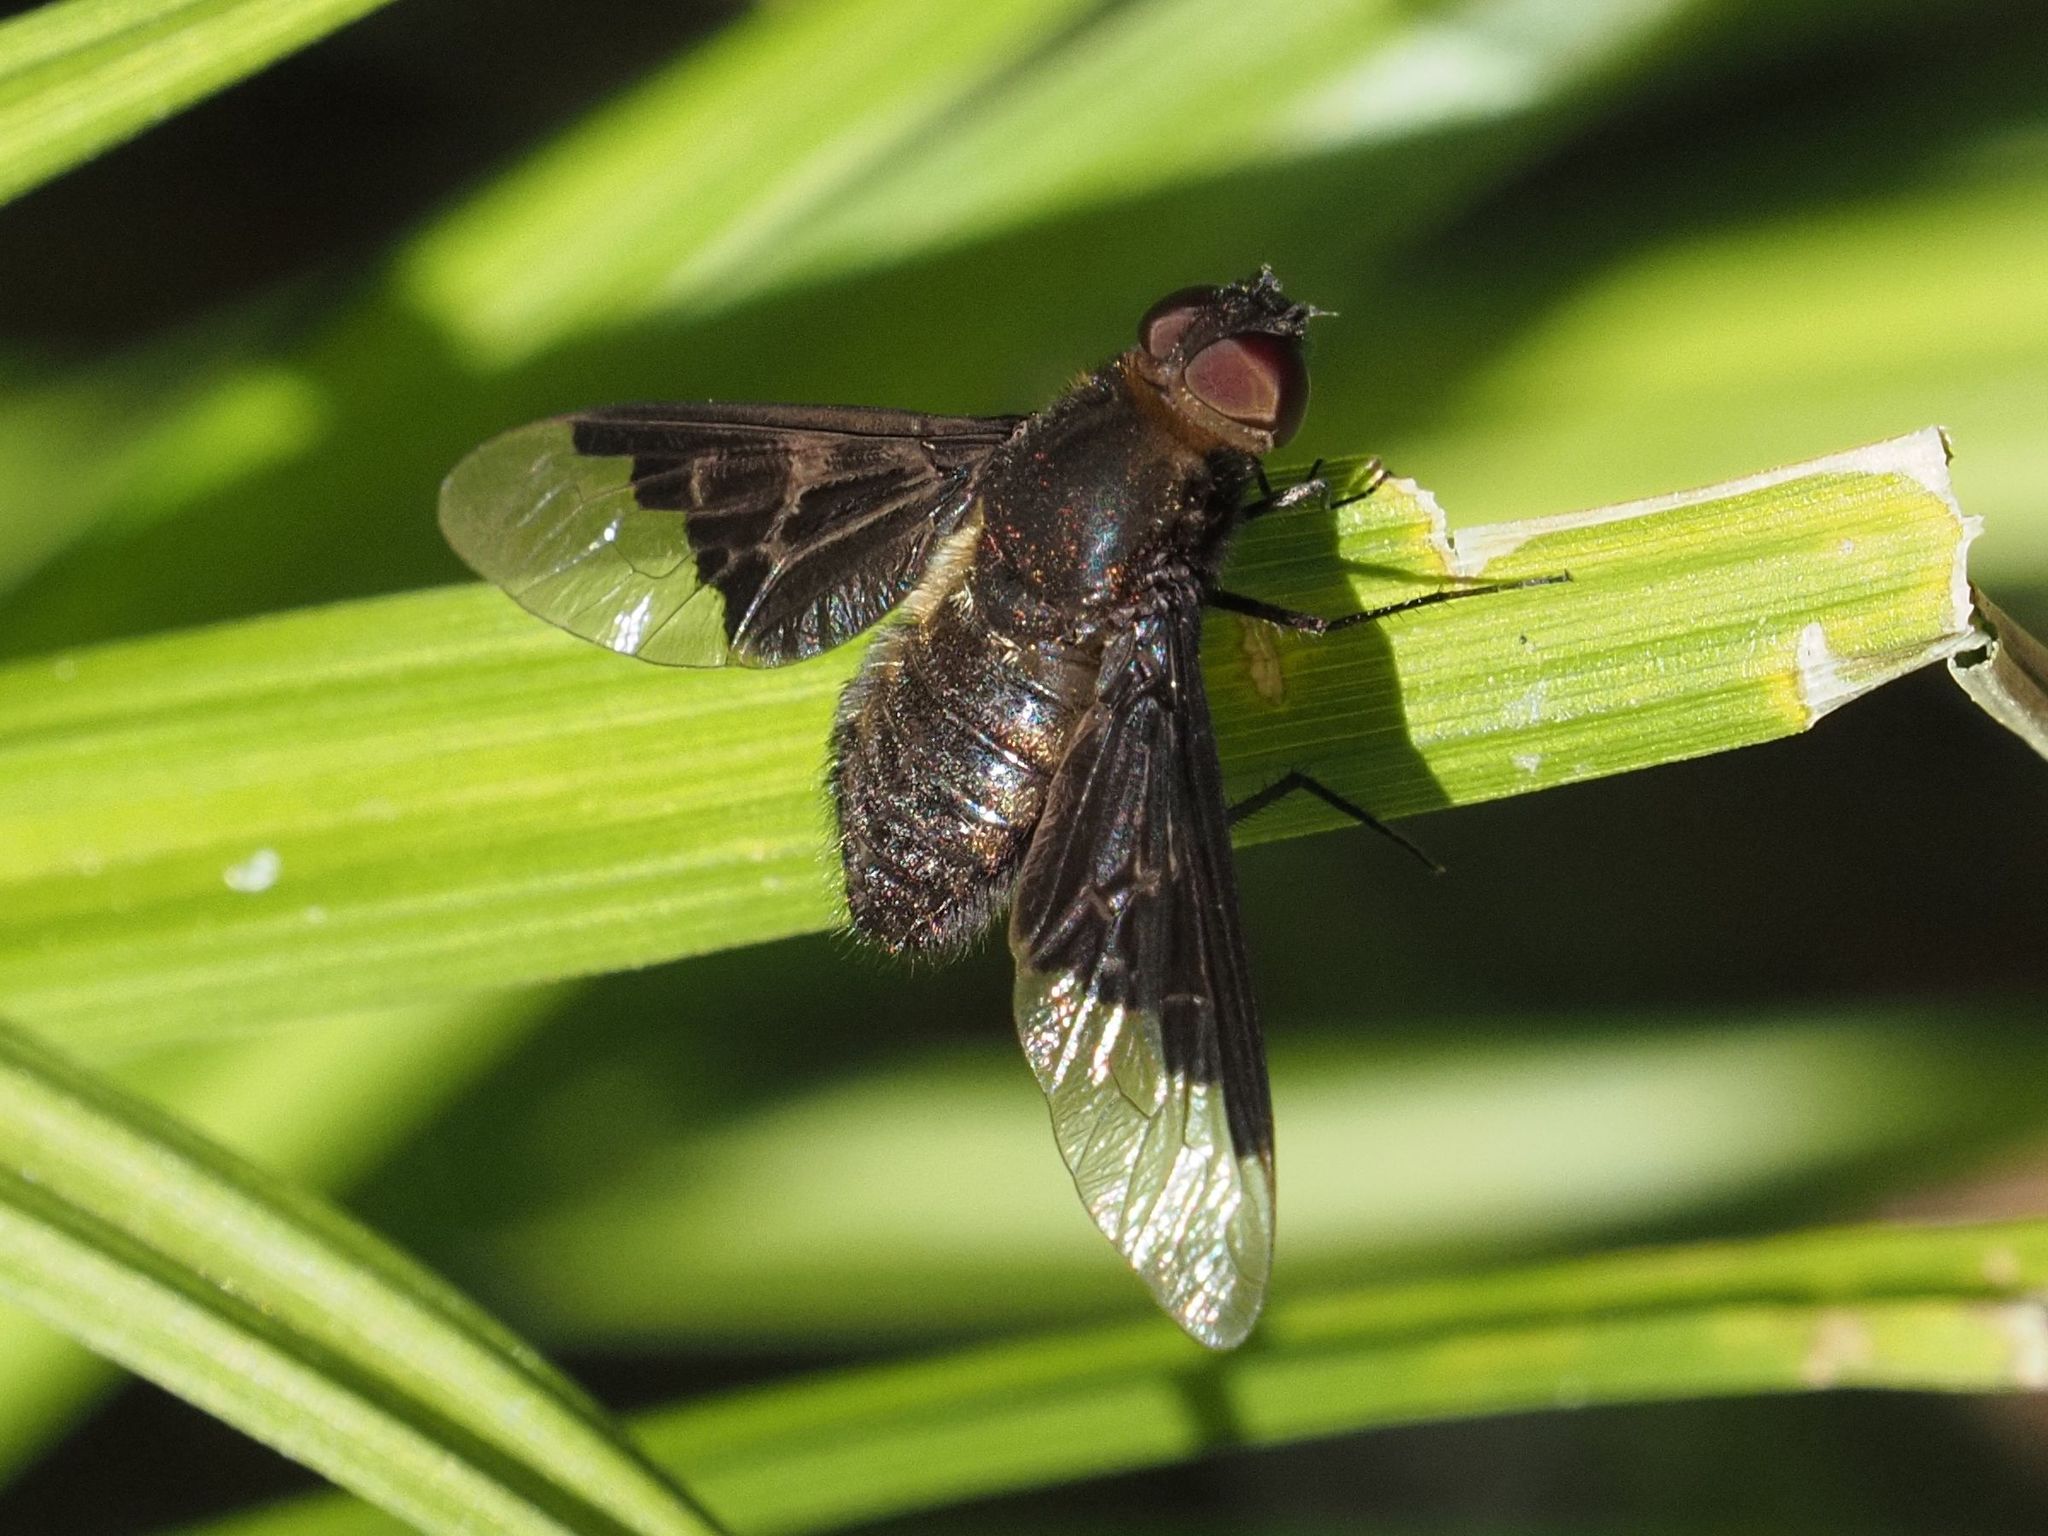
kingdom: Animalia
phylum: Arthropoda
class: Insecta
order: Diptera
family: Bombyliidae
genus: Hemipenthes
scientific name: Hemipenthes morio
